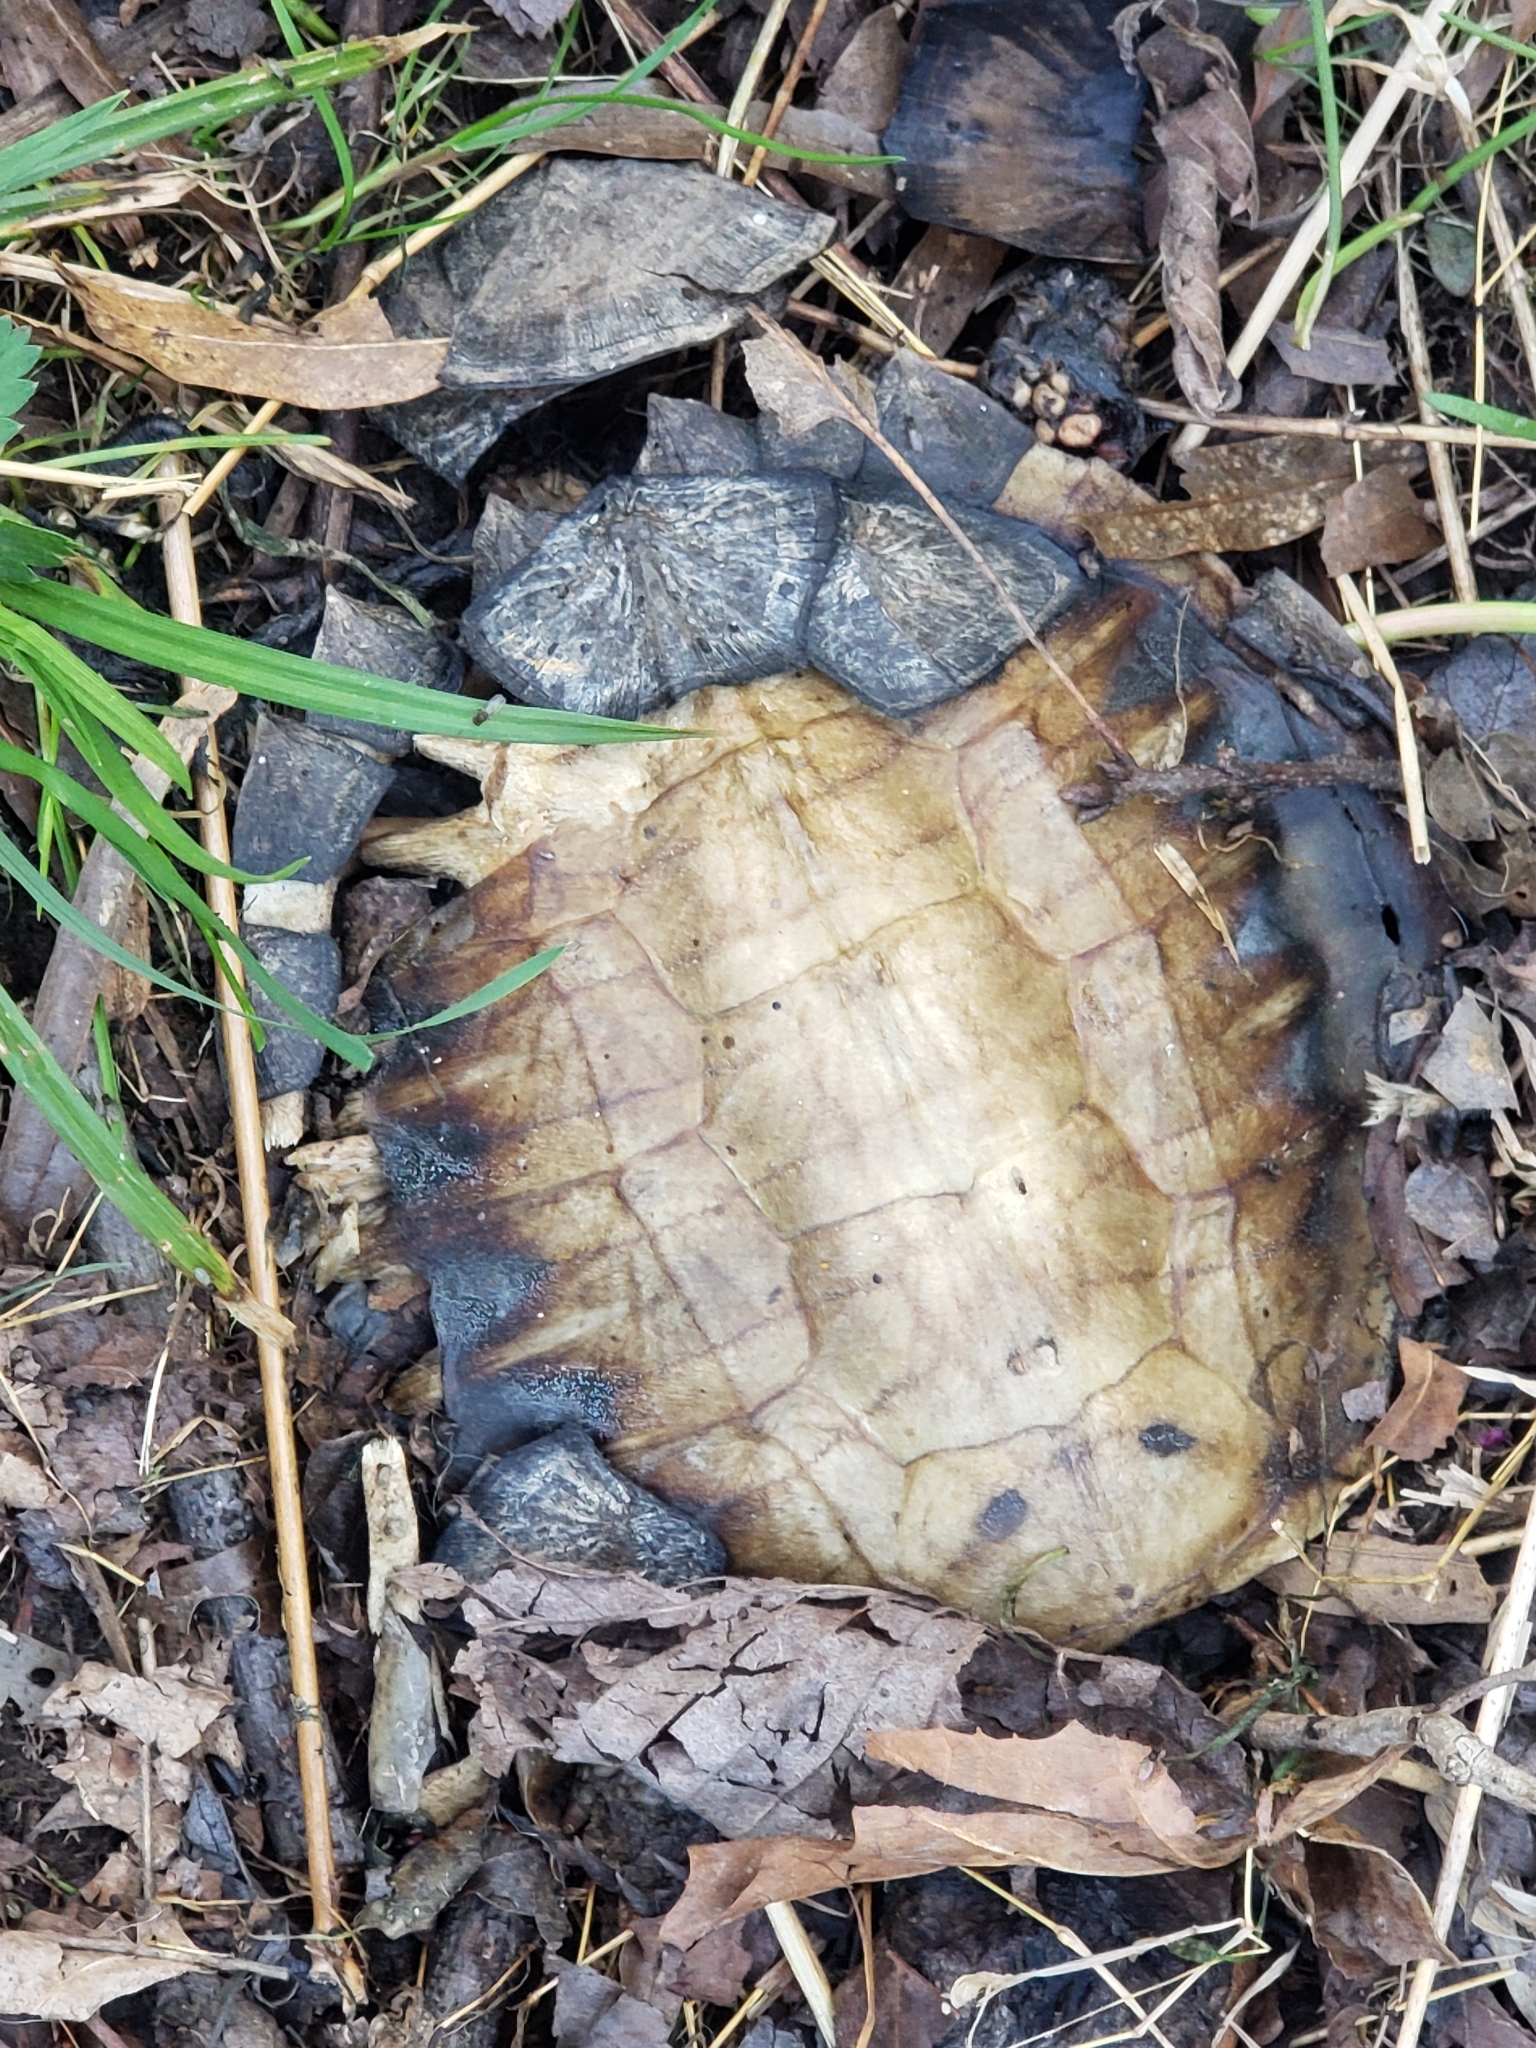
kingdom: Animalia
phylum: Chordata
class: Testudines
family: Chelydridae
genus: Chelydra
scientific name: Chelydra serpentina
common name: Common snapping turtle
